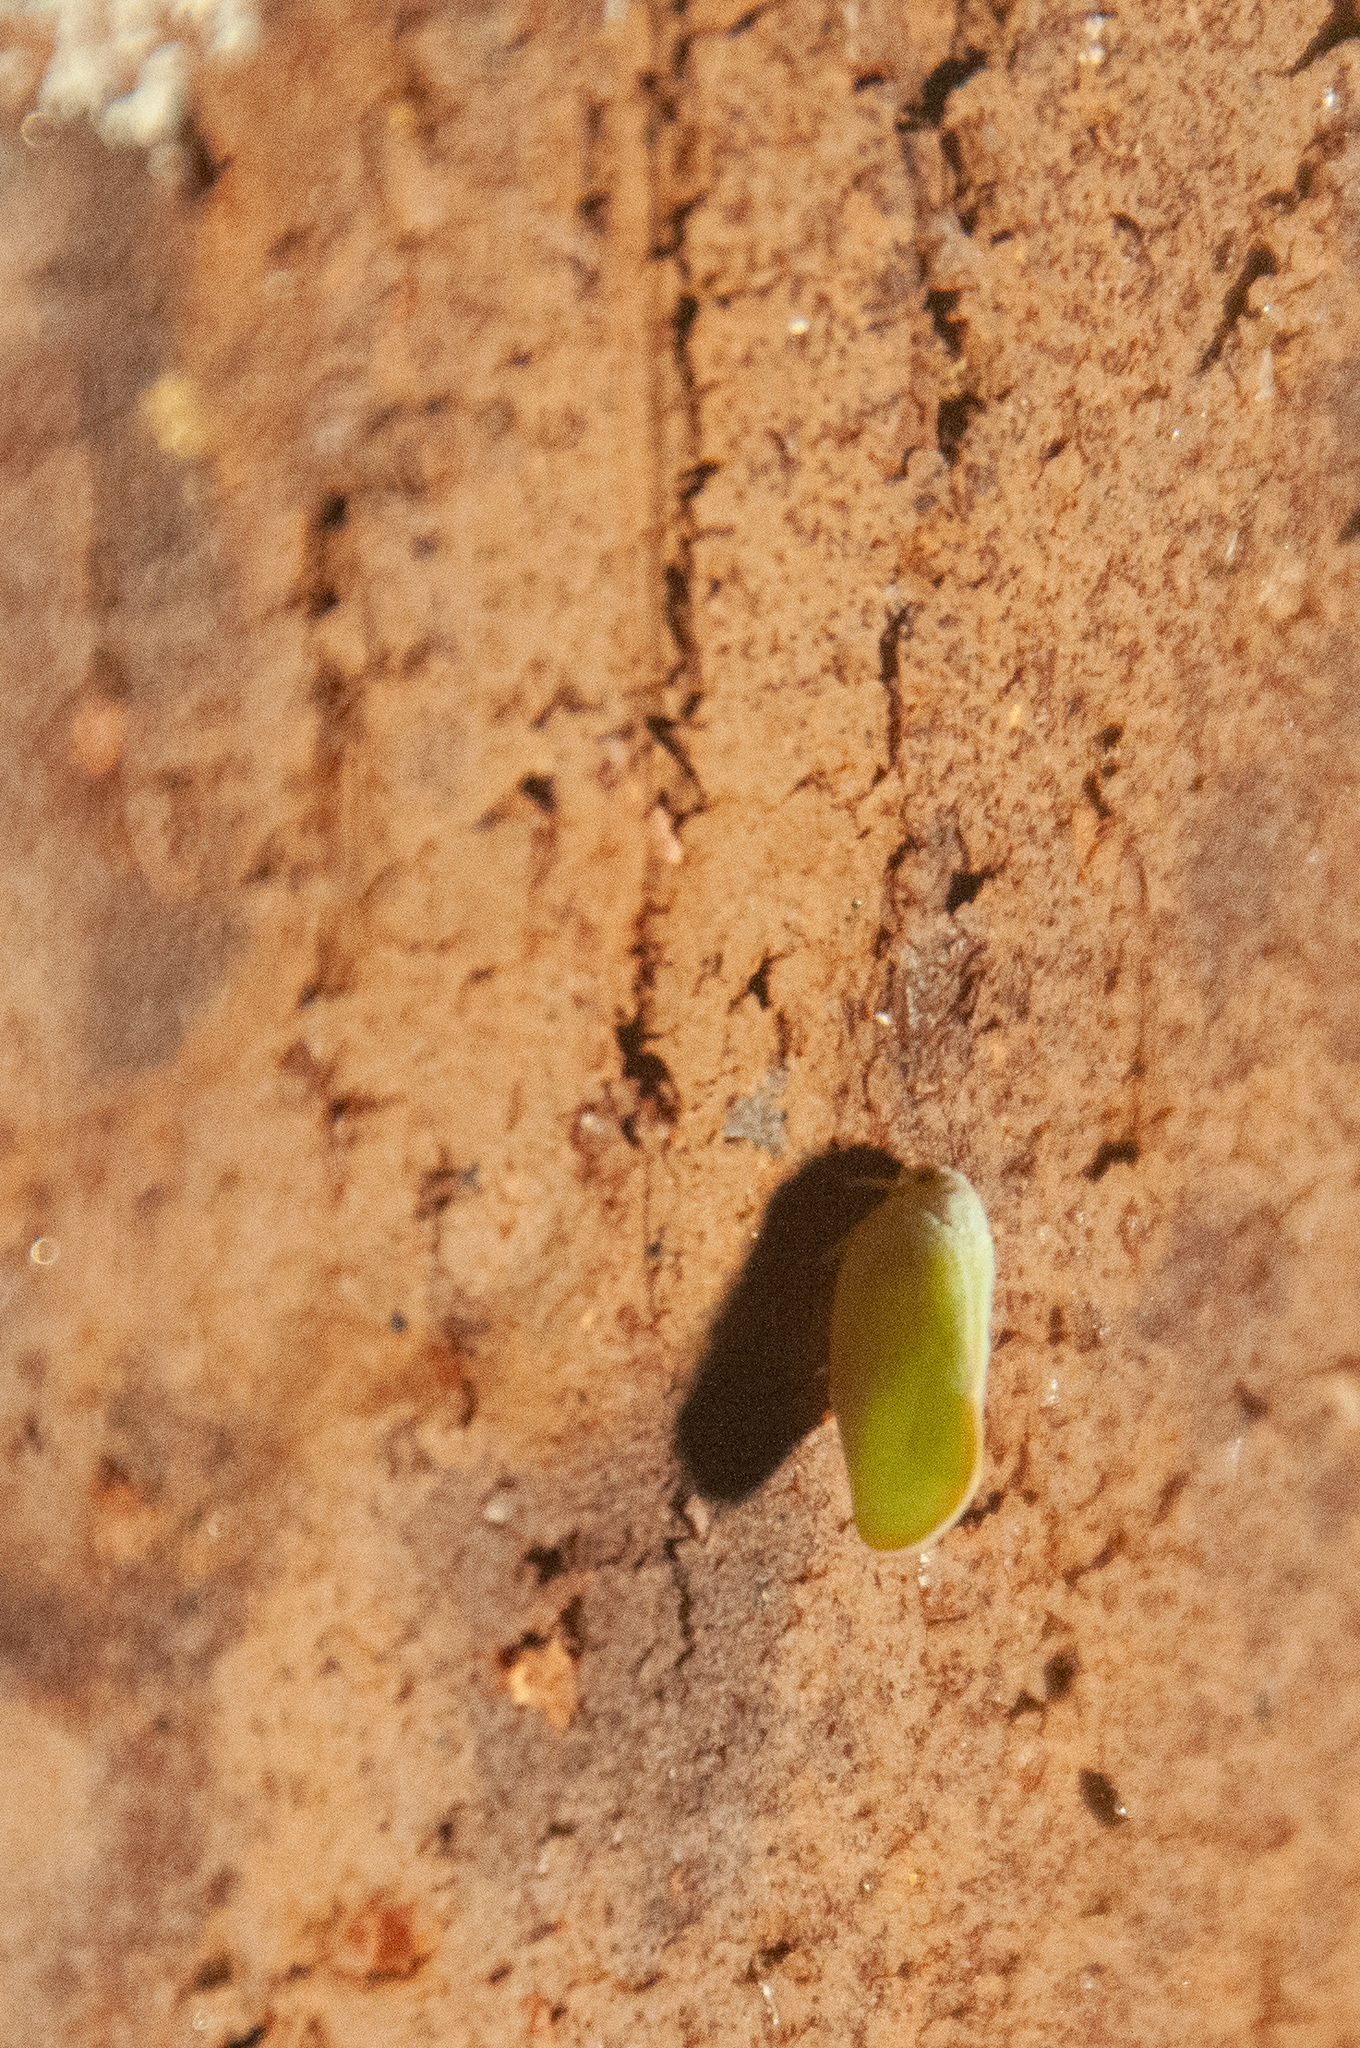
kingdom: Animalia
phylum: Arthropoda
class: Insecta
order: Hemiptera
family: Flatidae
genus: Ormenoides
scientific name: Ormenoides venusta
